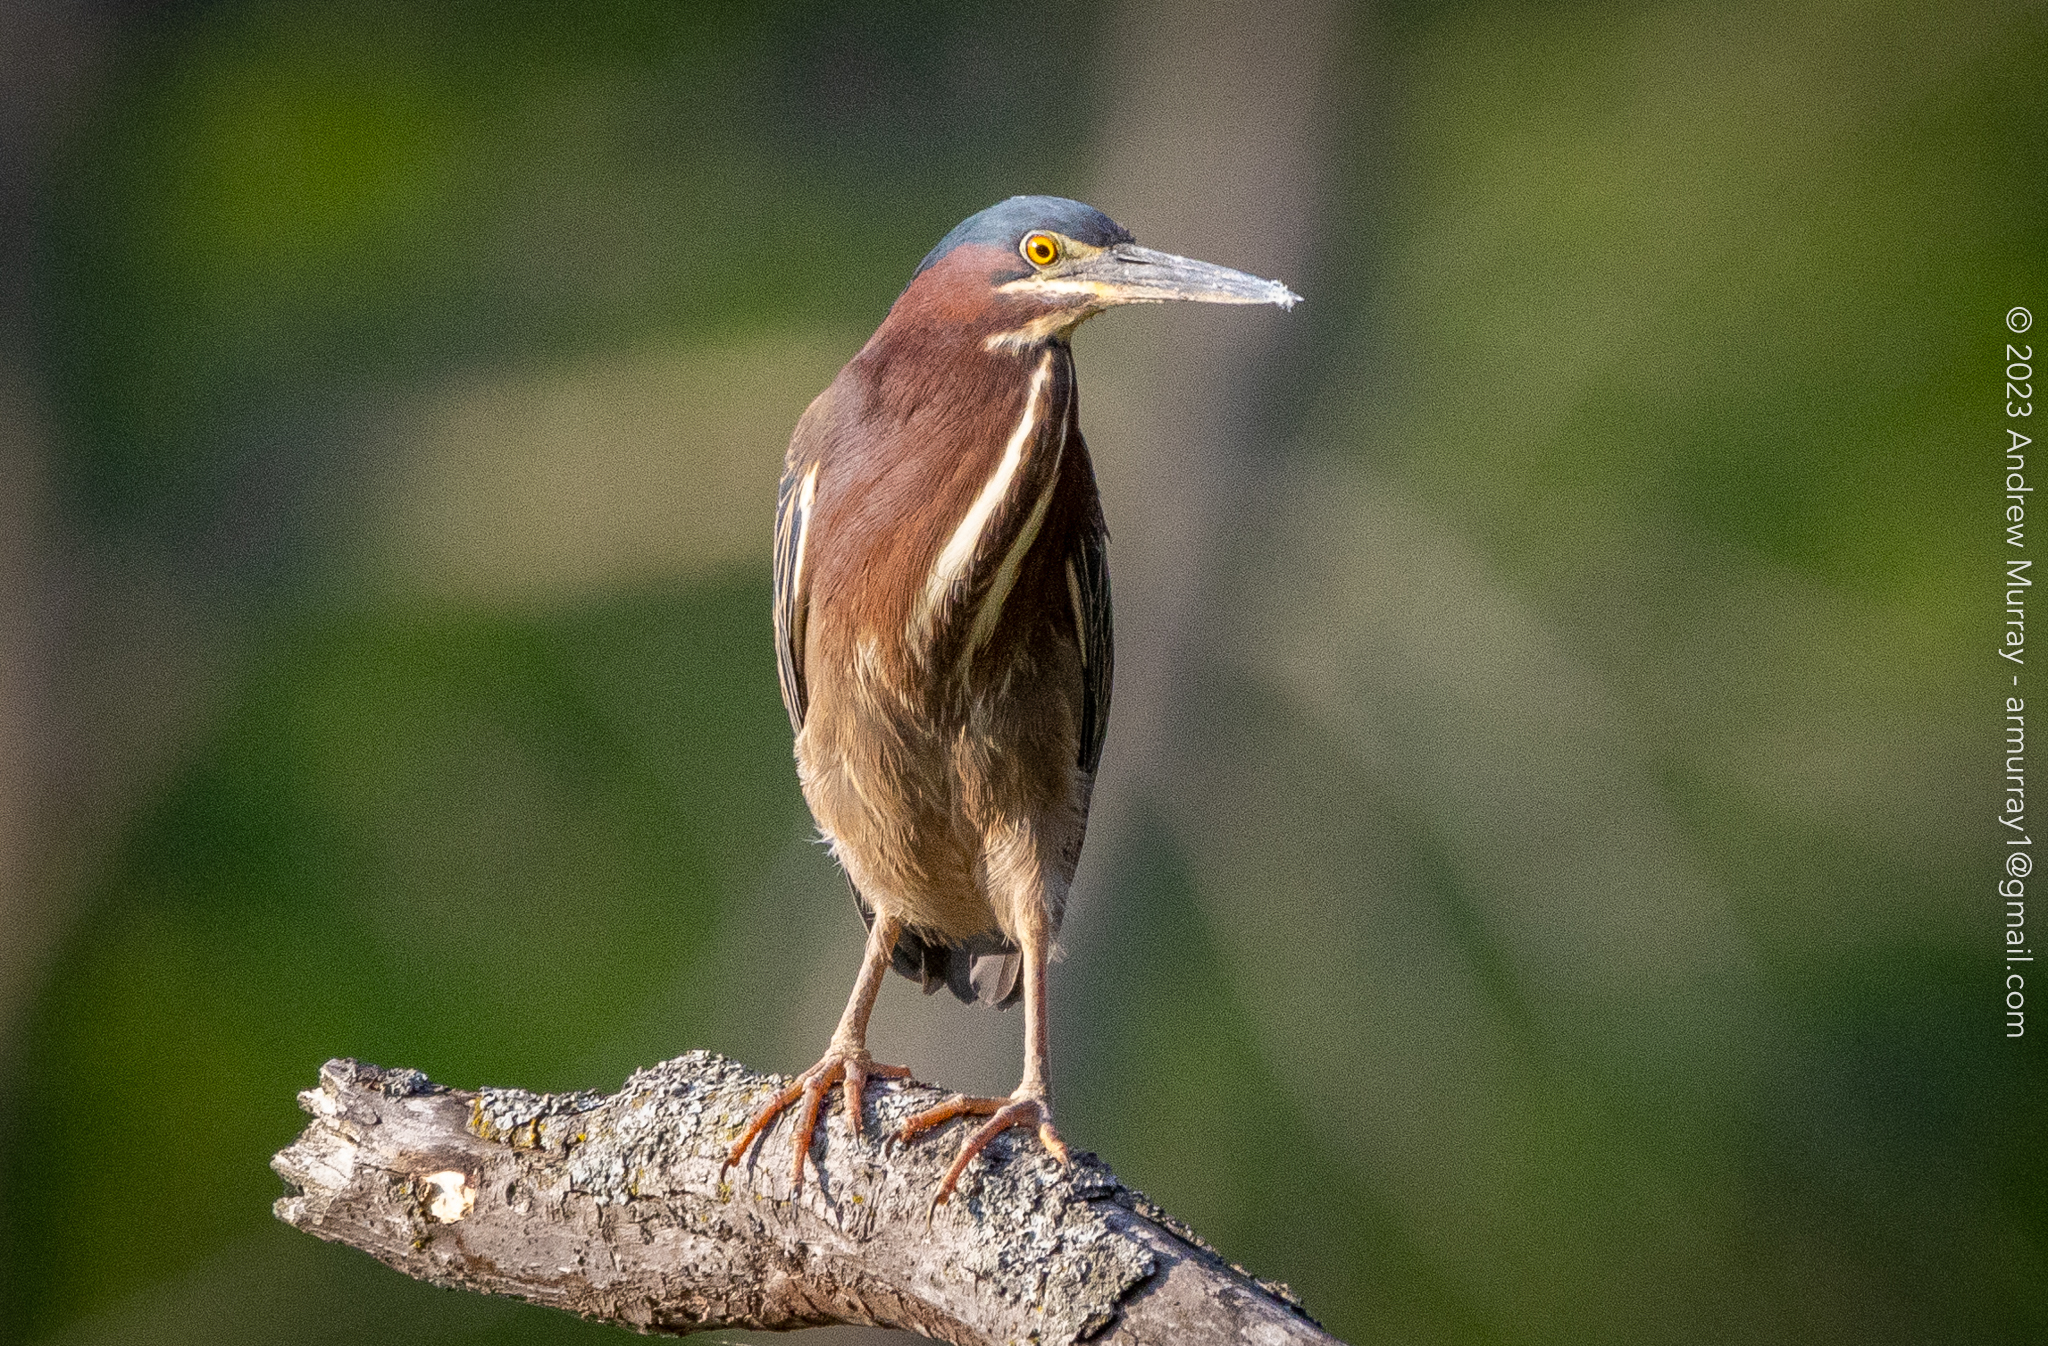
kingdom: Animalia
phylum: Chordata
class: Aves
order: Pelecaniformes
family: Ardeidae
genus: Butorides
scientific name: Butorides virescens
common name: Green heron
